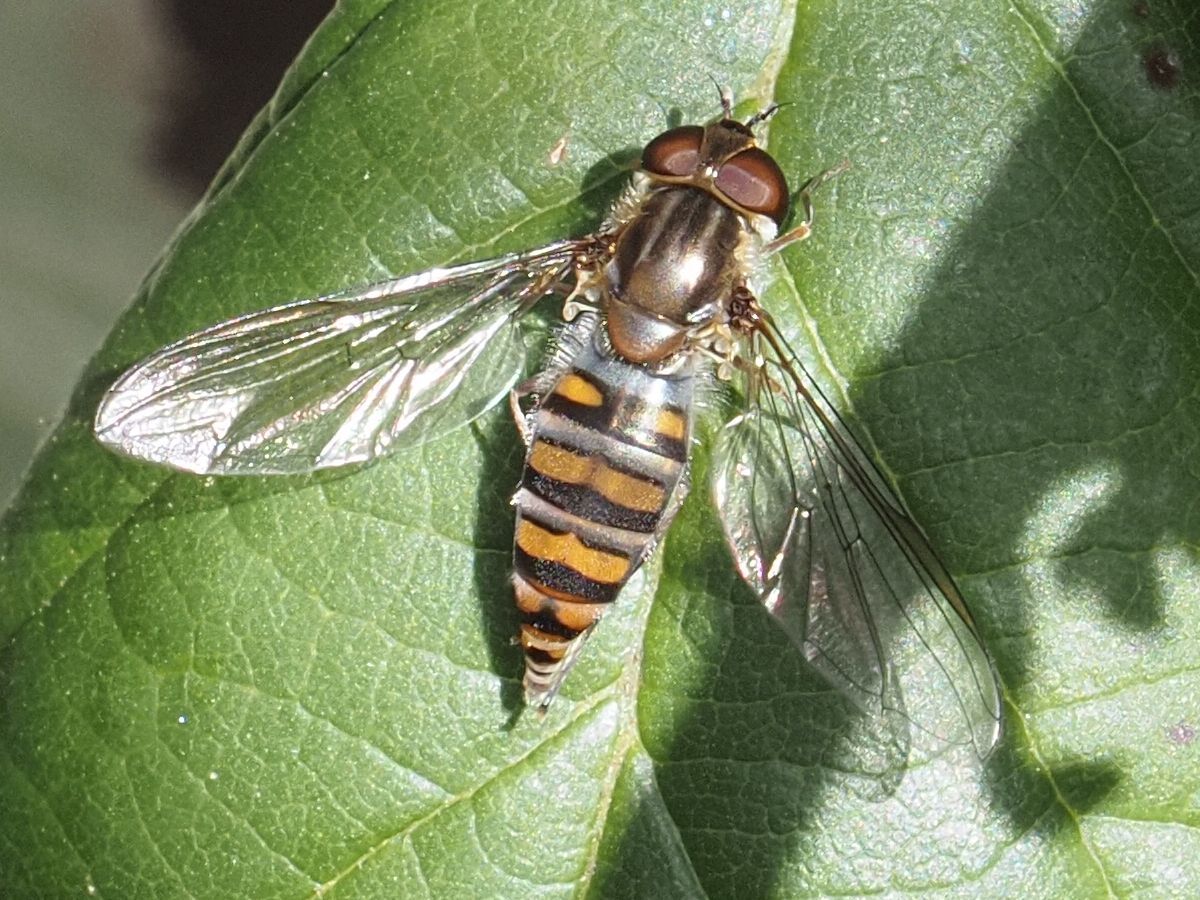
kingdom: Animalia
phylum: Arthropoda
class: Insecta
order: Diptera
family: Syrphidae
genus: Episyrphus
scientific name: Episyrphus balteatus
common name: Marmalade hoverfly
